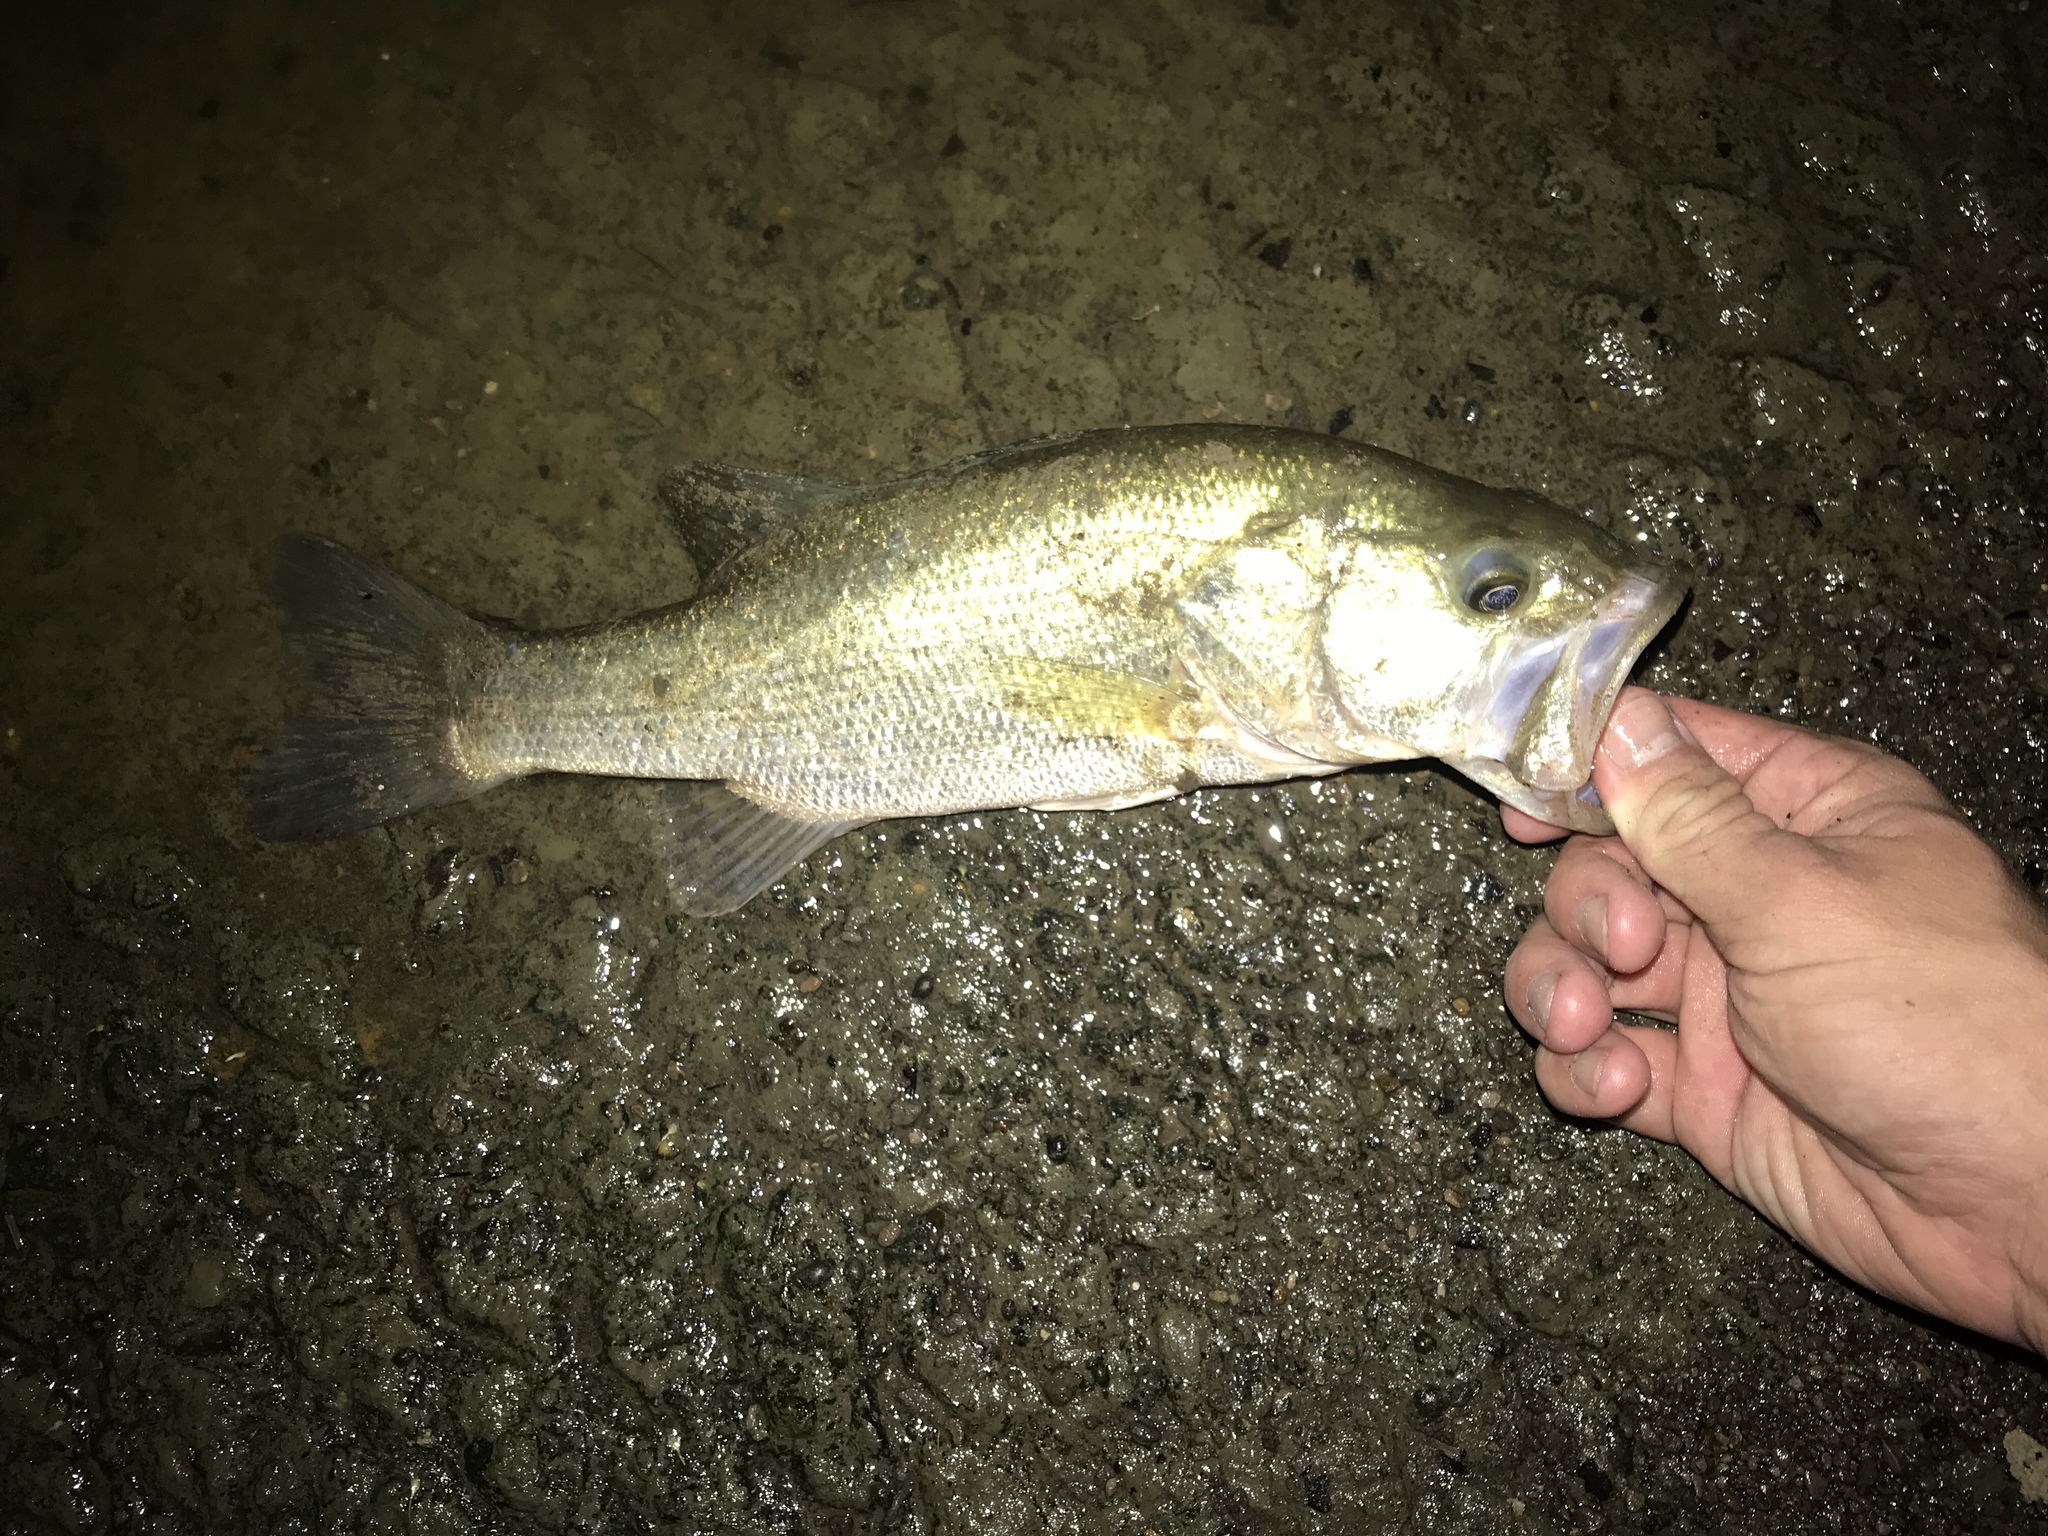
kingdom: Animalia
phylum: Chordata
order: Perciformes
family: Centrarchidae
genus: Micropterus
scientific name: Micropterus
